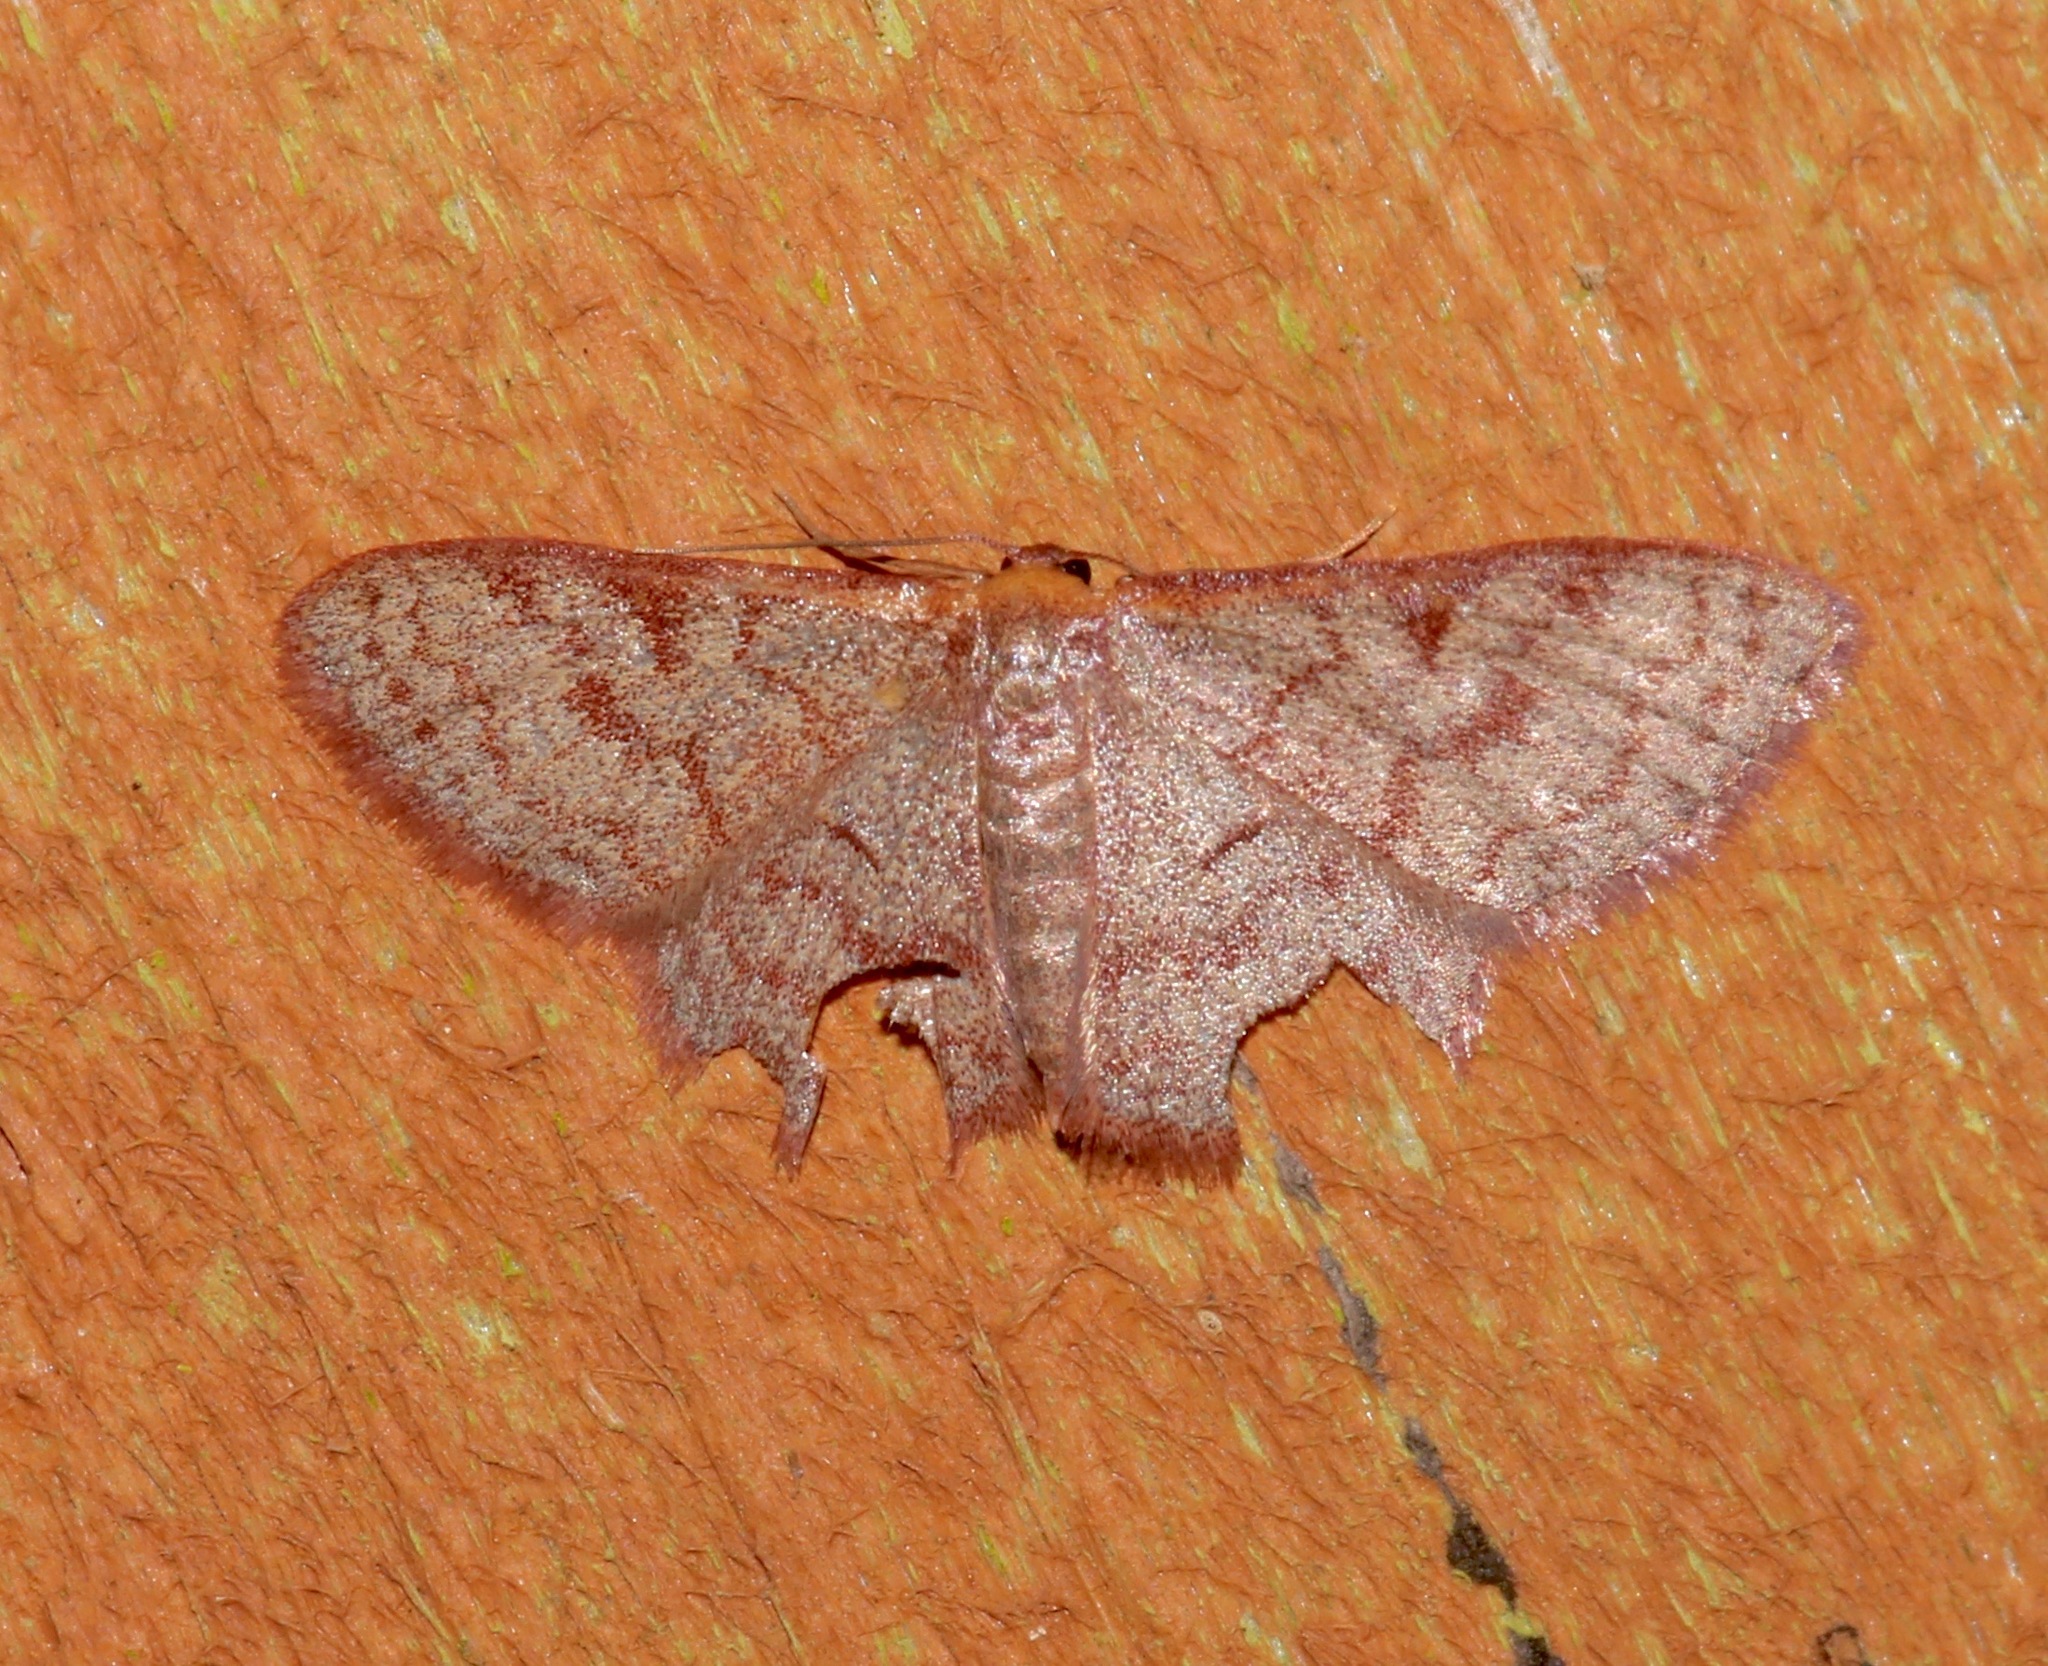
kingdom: Animalia
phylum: Arthropoda
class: Insecta
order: Lepidoptera
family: Geometridae
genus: Leptostales
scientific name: Leptostales pannaria
